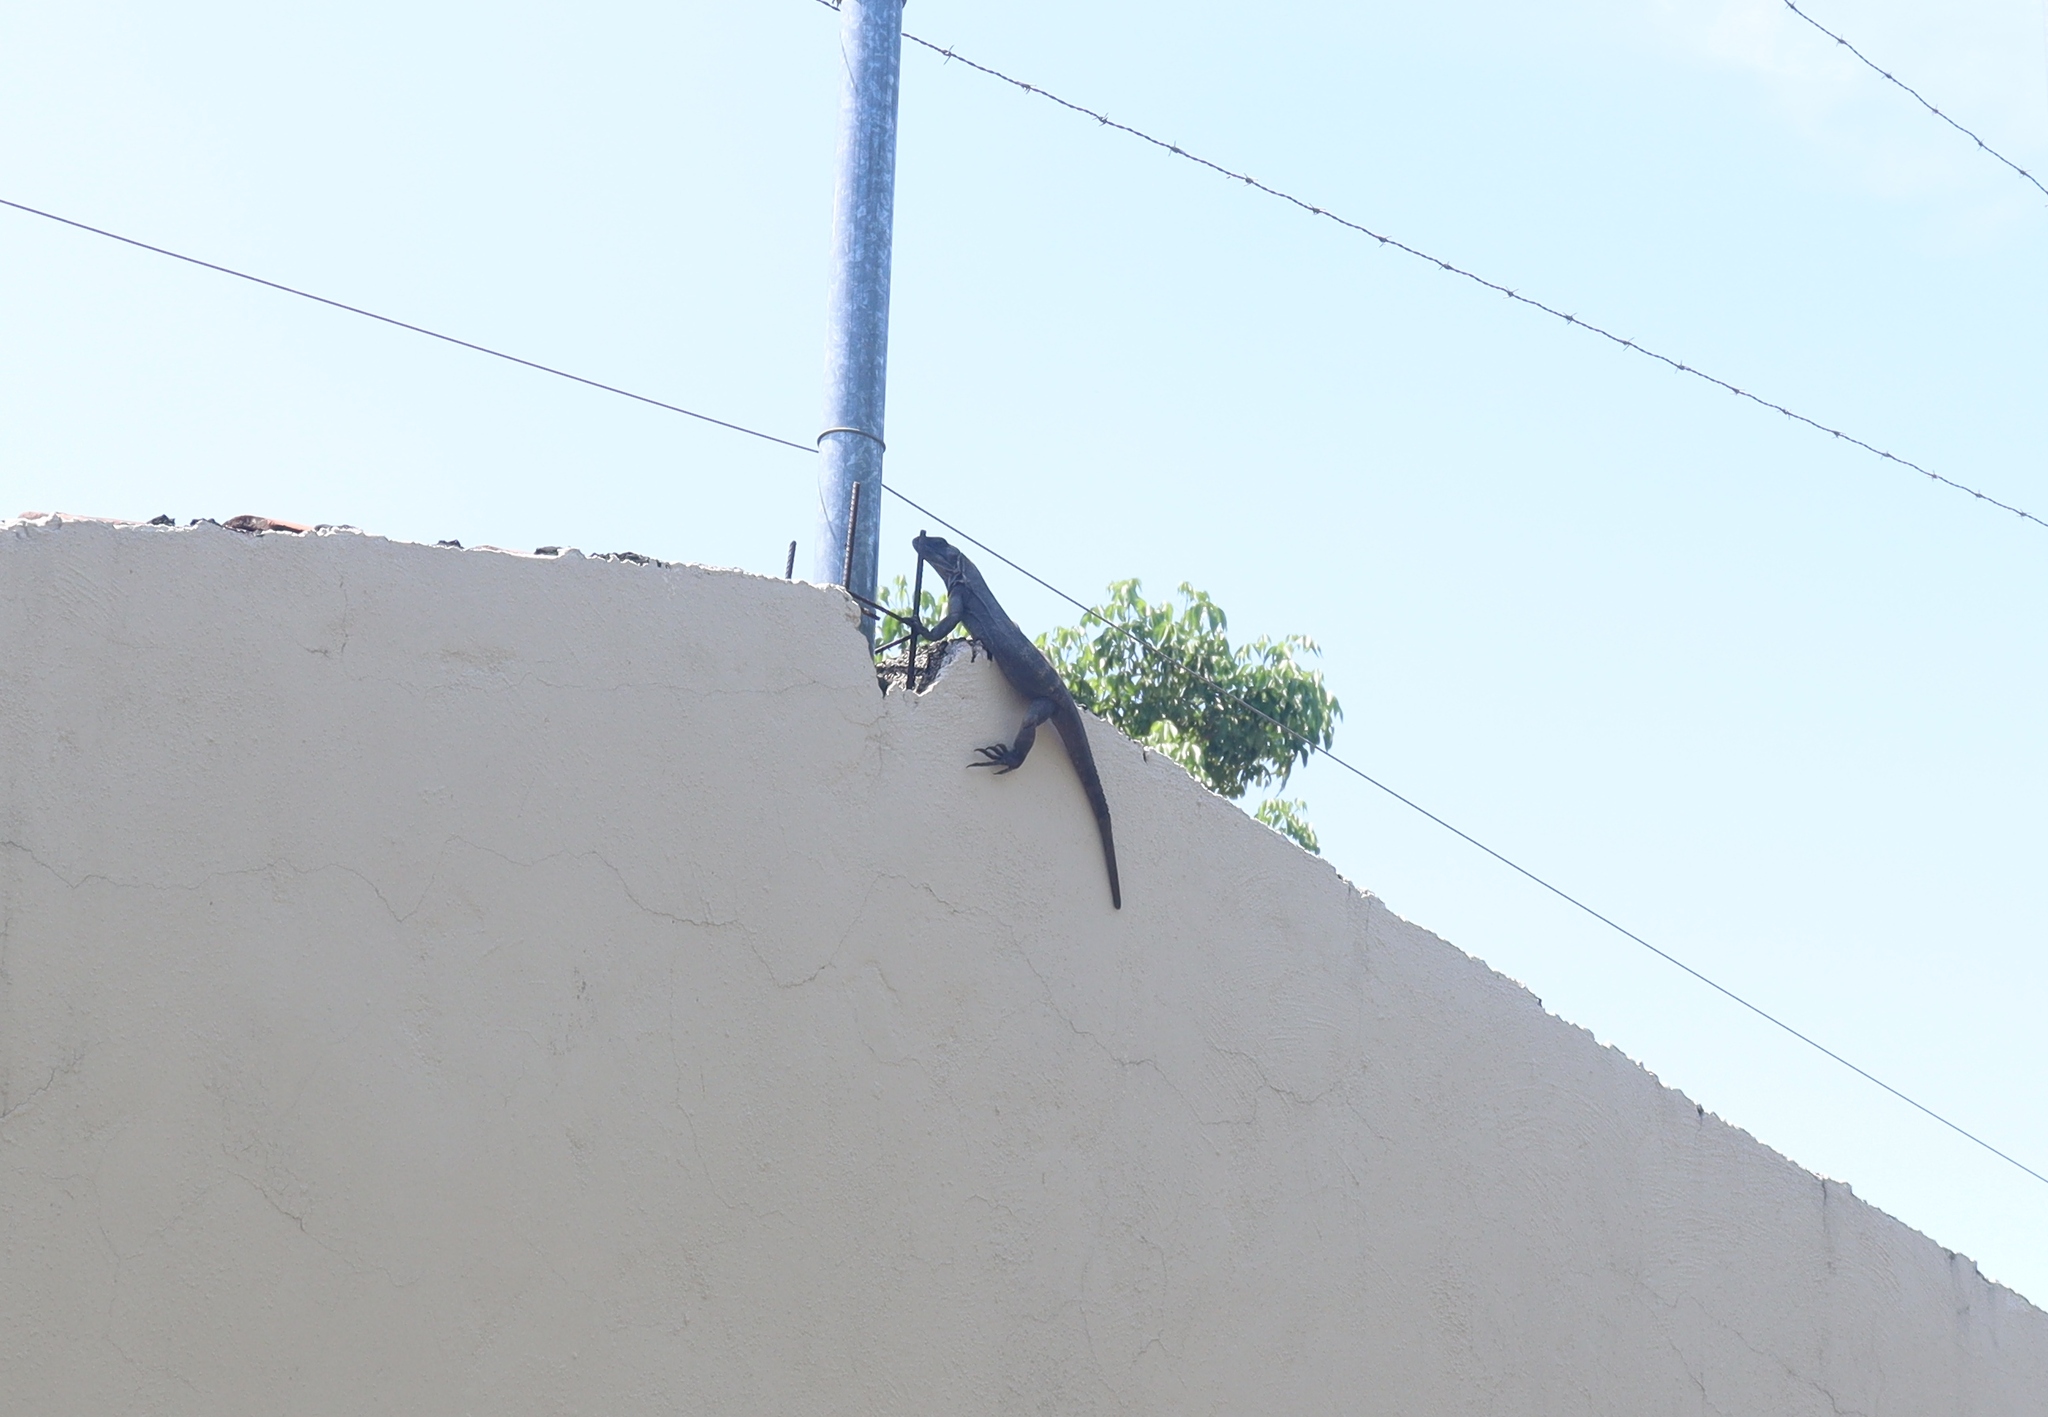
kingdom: Animalia
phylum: Chordata
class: Squamata
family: Iguanidae
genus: Ctenosaura
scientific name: Ctenosaura pectinata
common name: Guerreran spiny-tailed iguana
